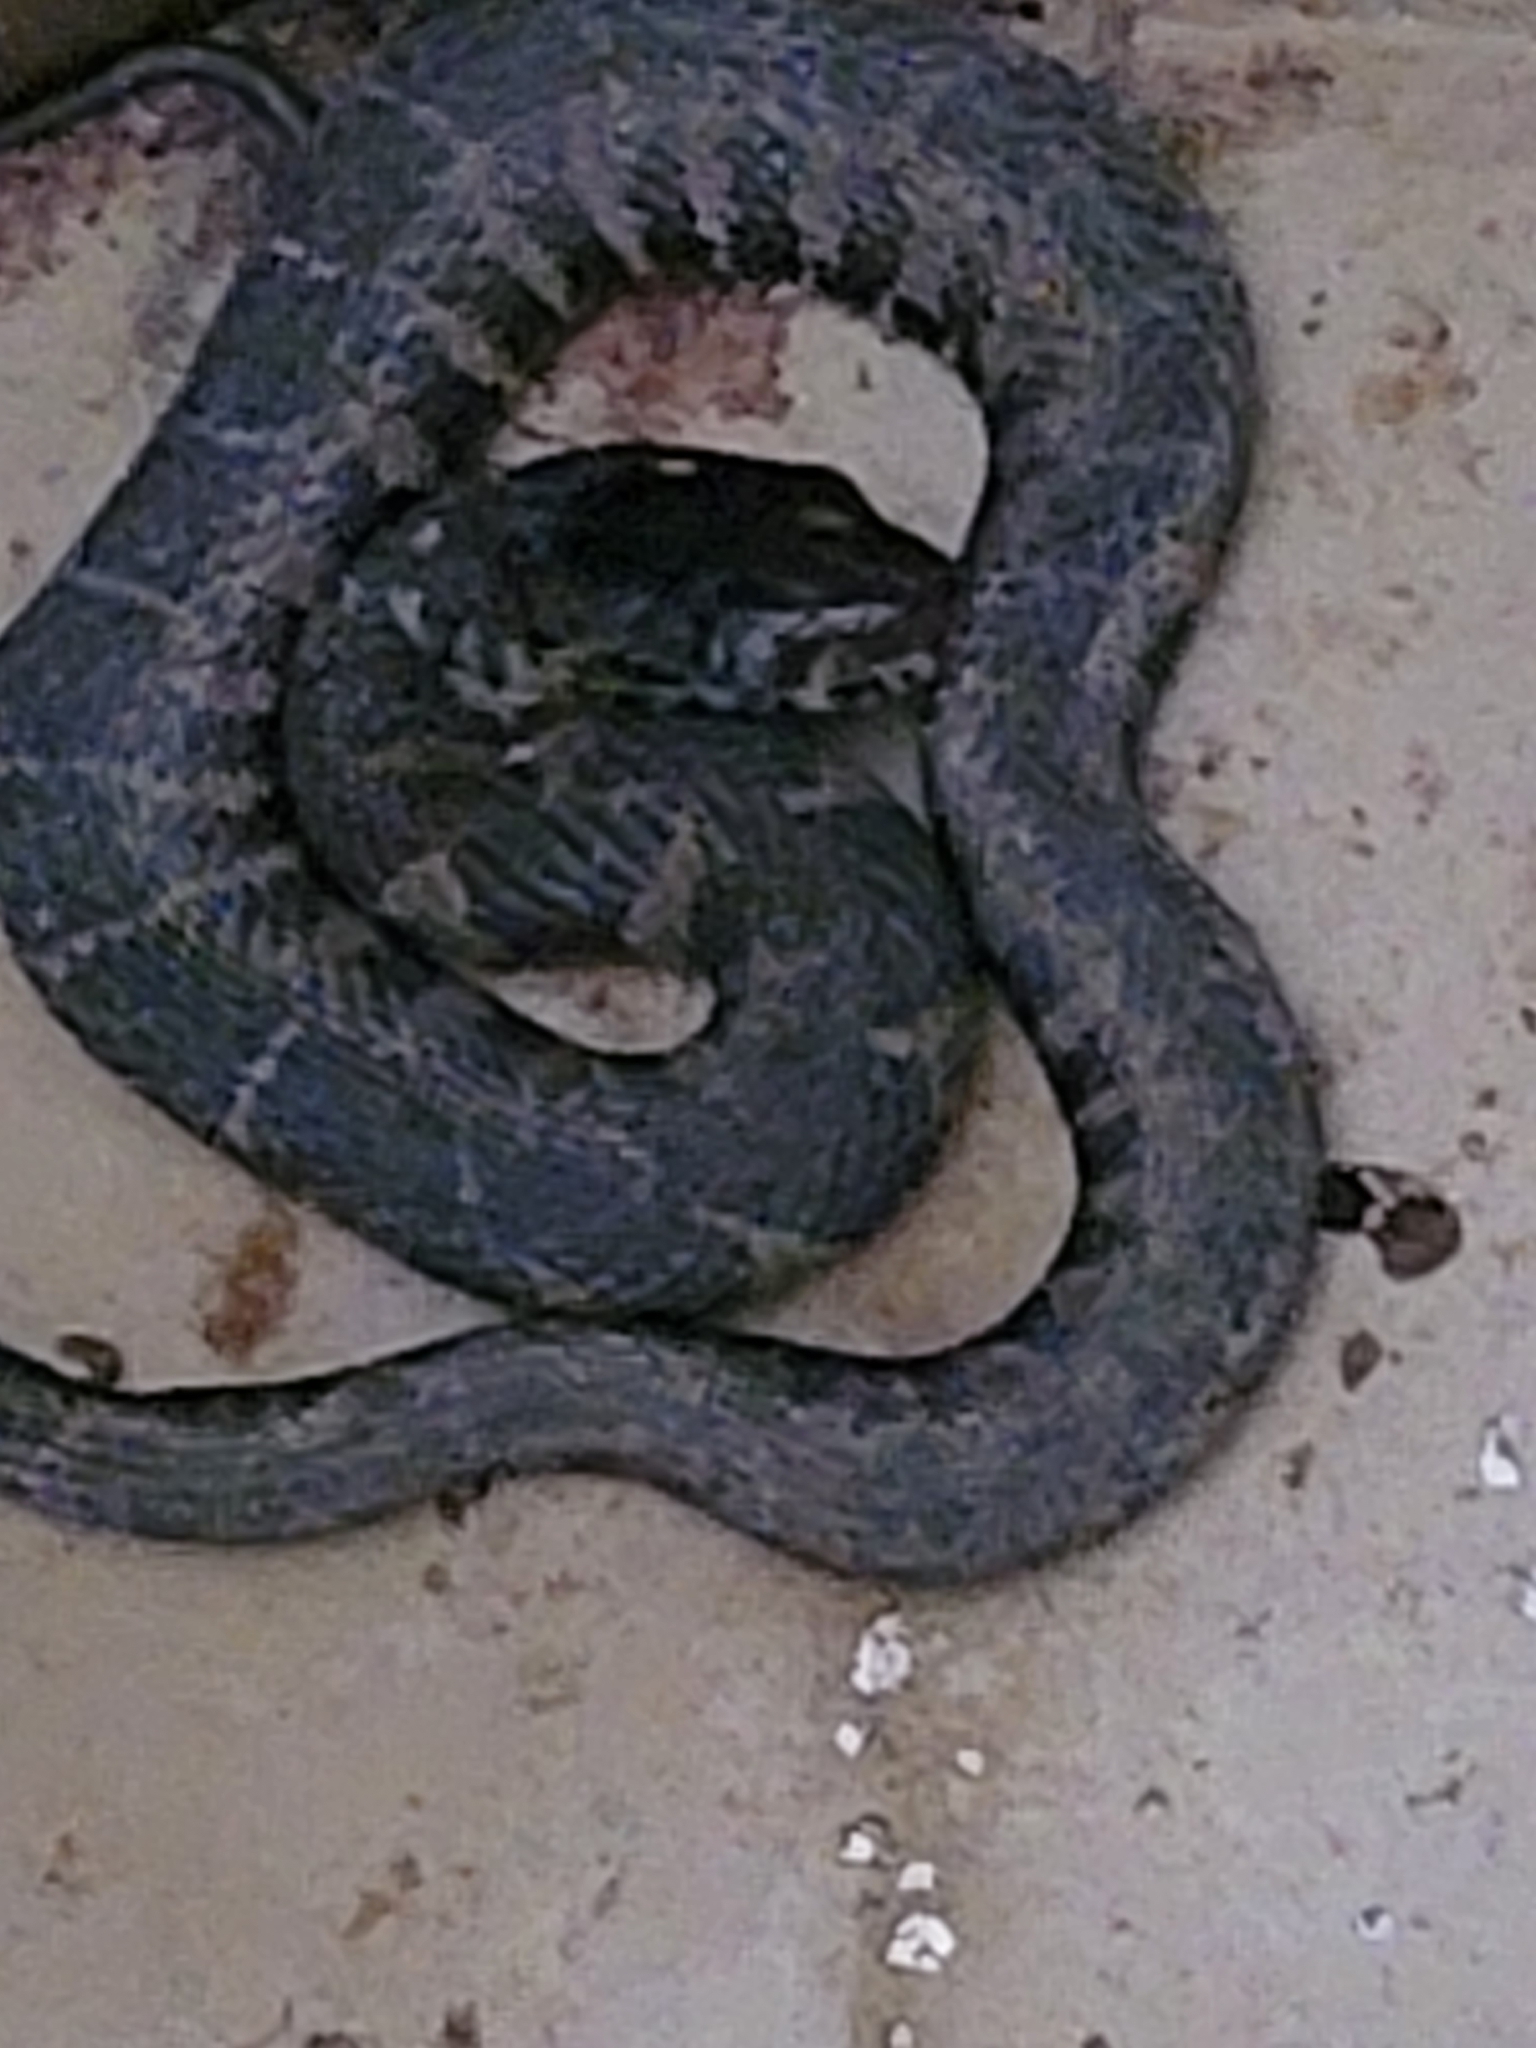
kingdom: Animalia
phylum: Chordata
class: Squamata
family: Colubridae
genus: Nerodia
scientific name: Nerodia sipedon
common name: Northern water snake
